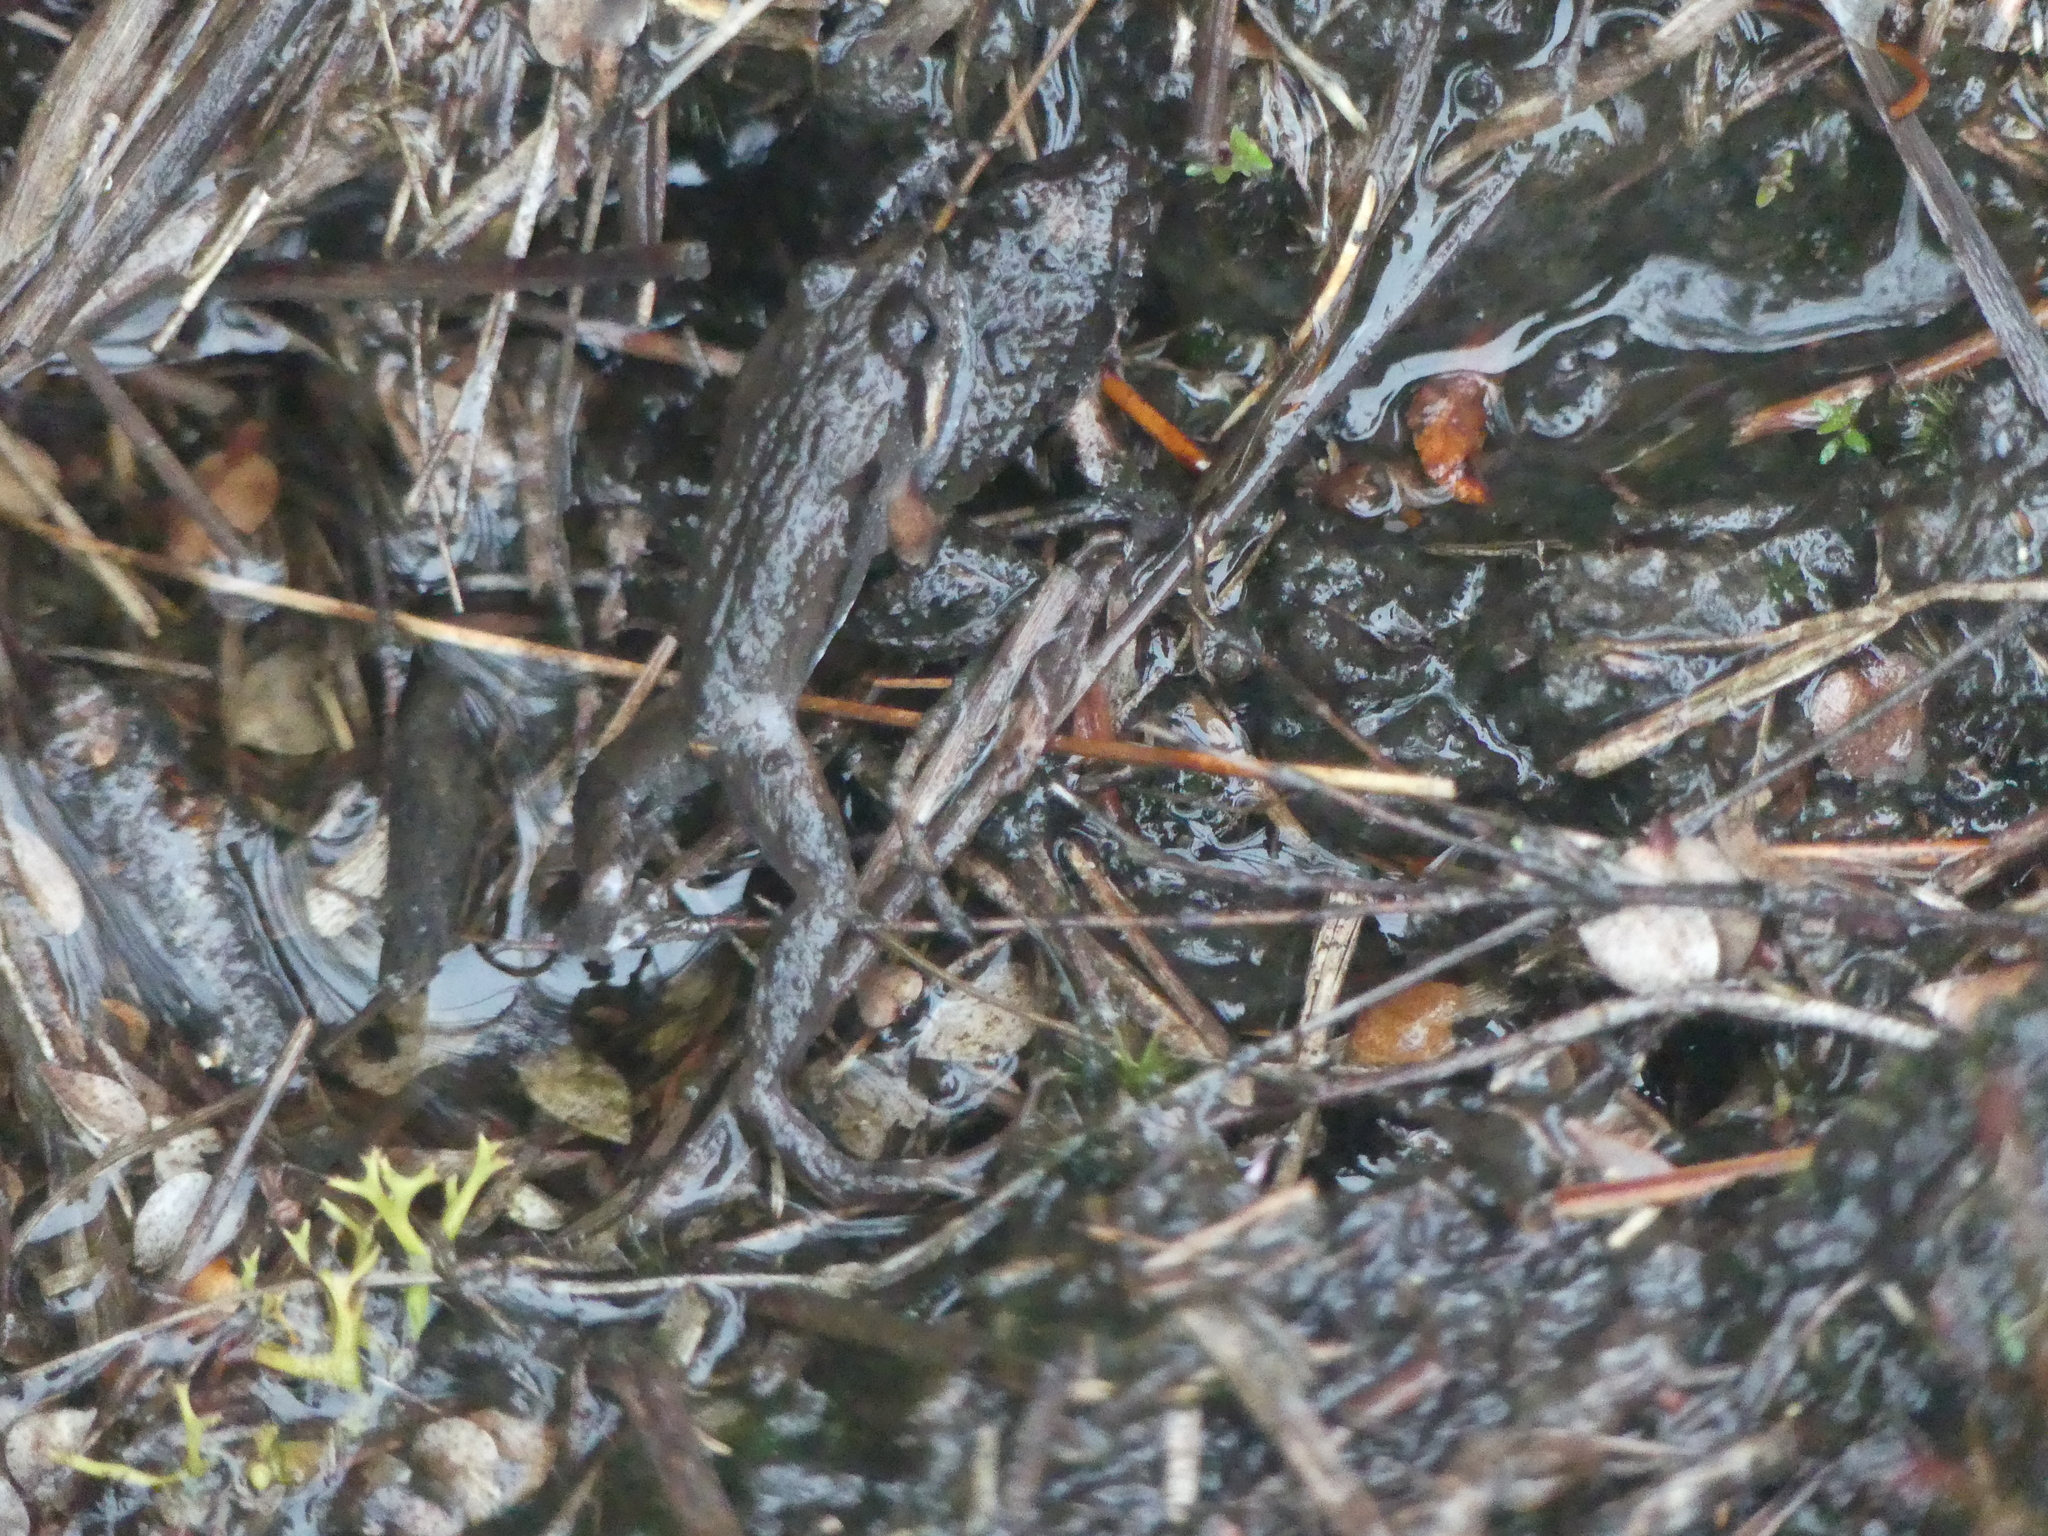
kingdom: Animalia
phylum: Chordata
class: Amphibia
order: Anura
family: Myobatrachidae
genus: Crinia
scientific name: Crinia signifera
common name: Brown froglet
